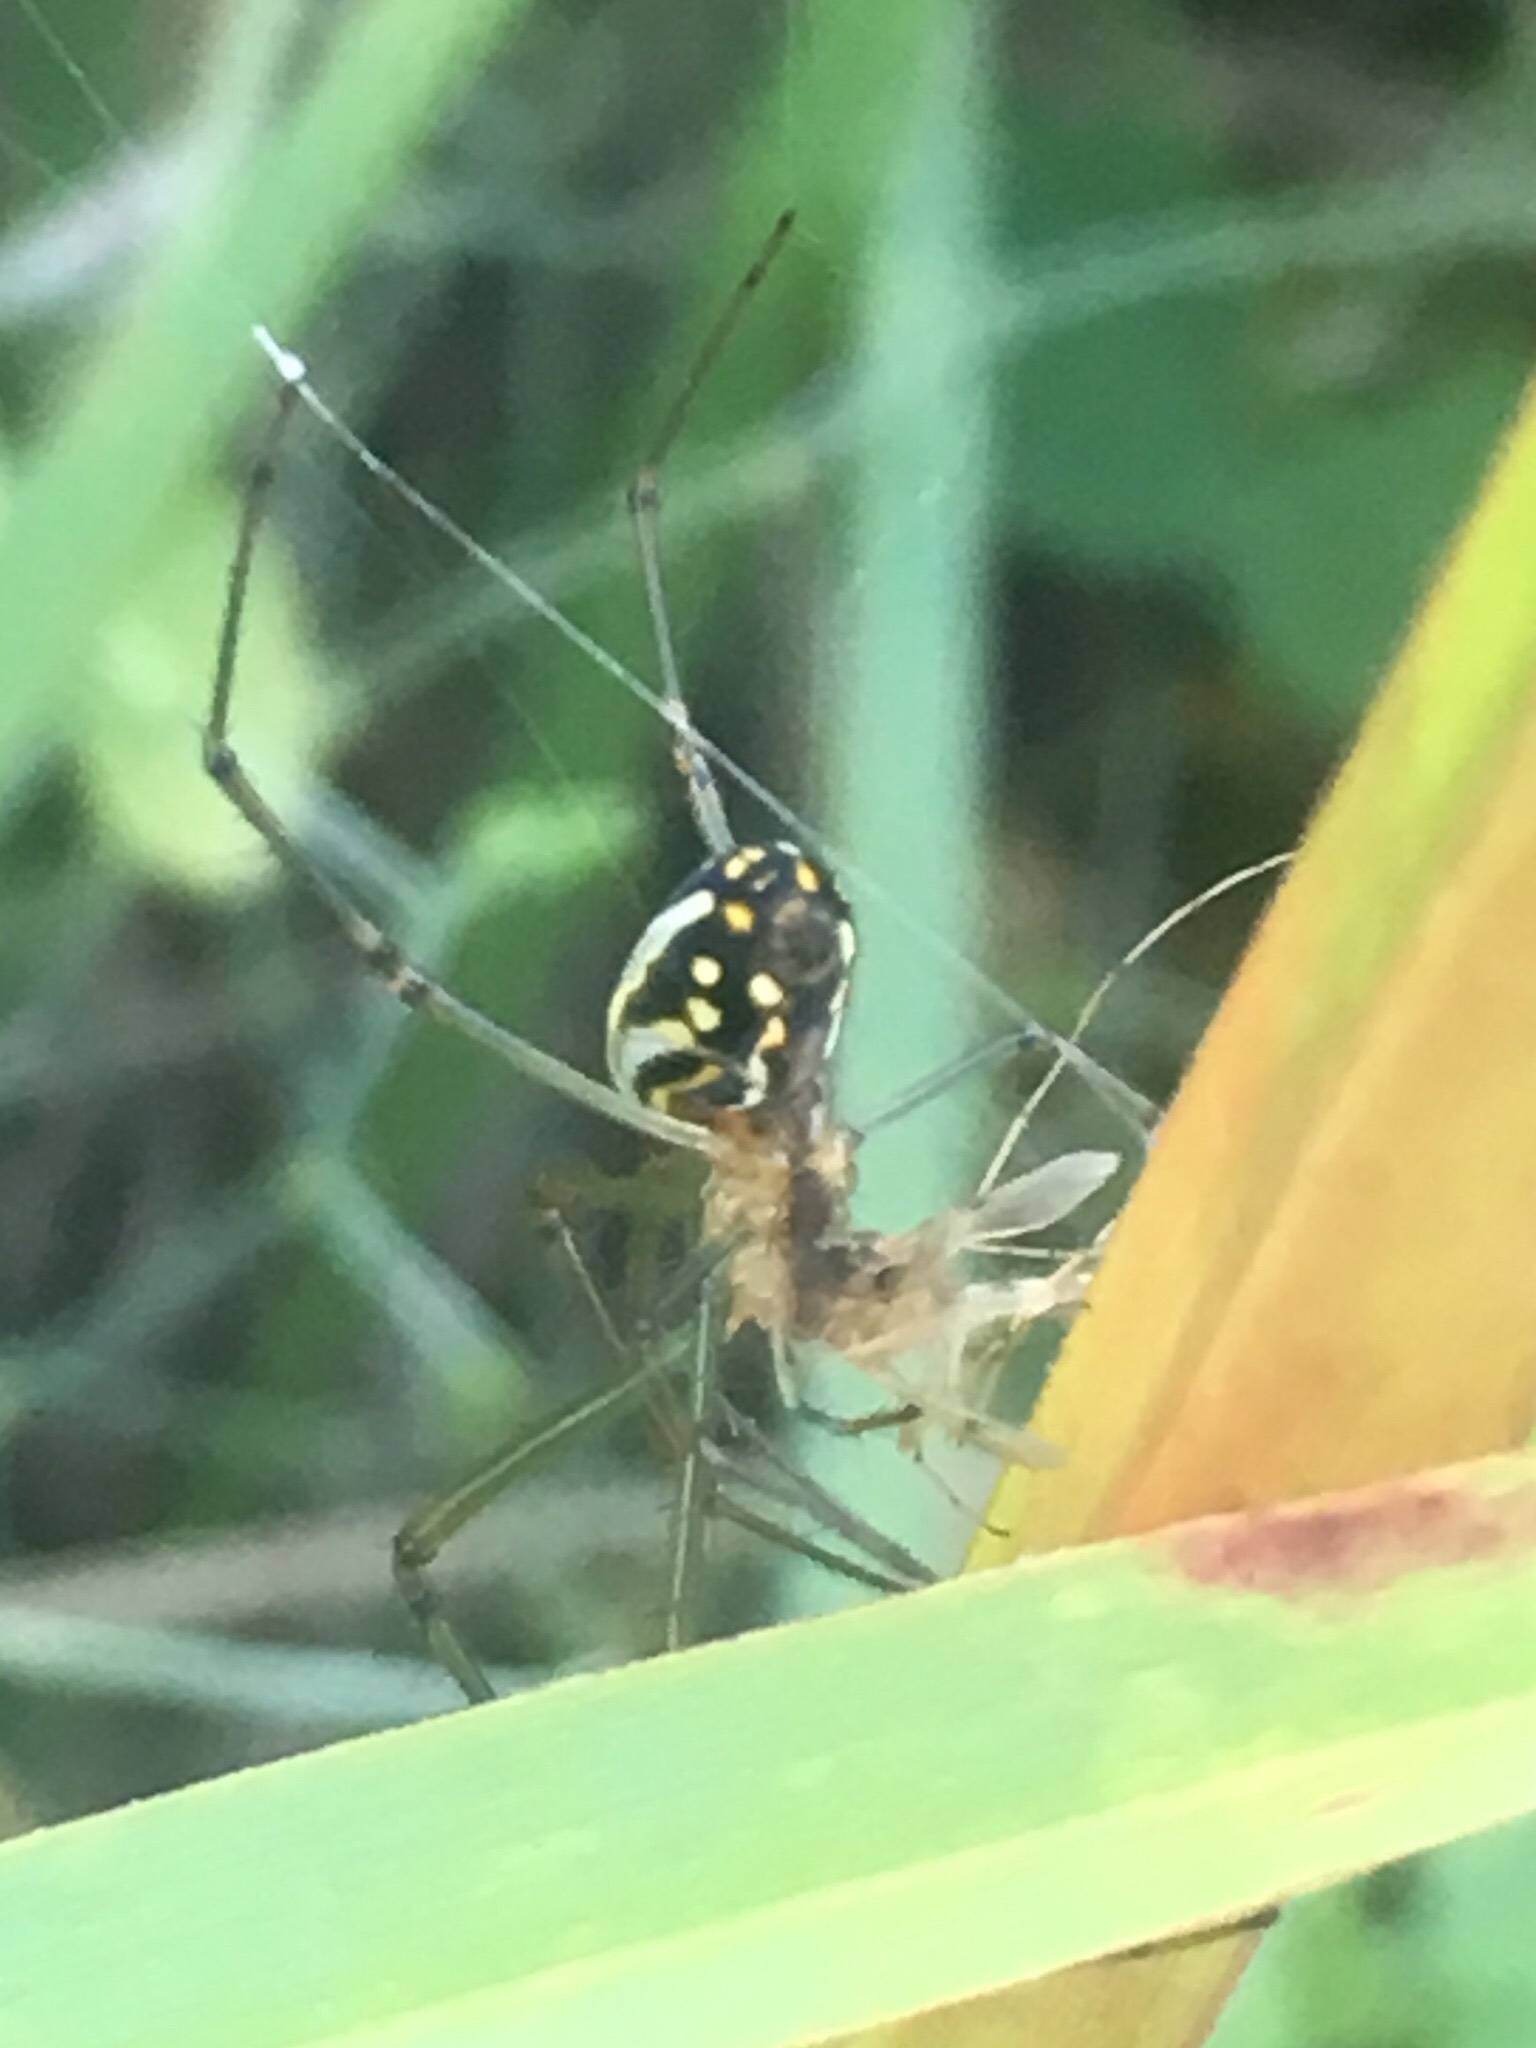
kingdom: Animalia
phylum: Arthropoda
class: Arachnida
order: Araneae
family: Tetragnathidae
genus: Leucauge
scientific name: Leucauge argyra
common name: Longjawed orb weavers
